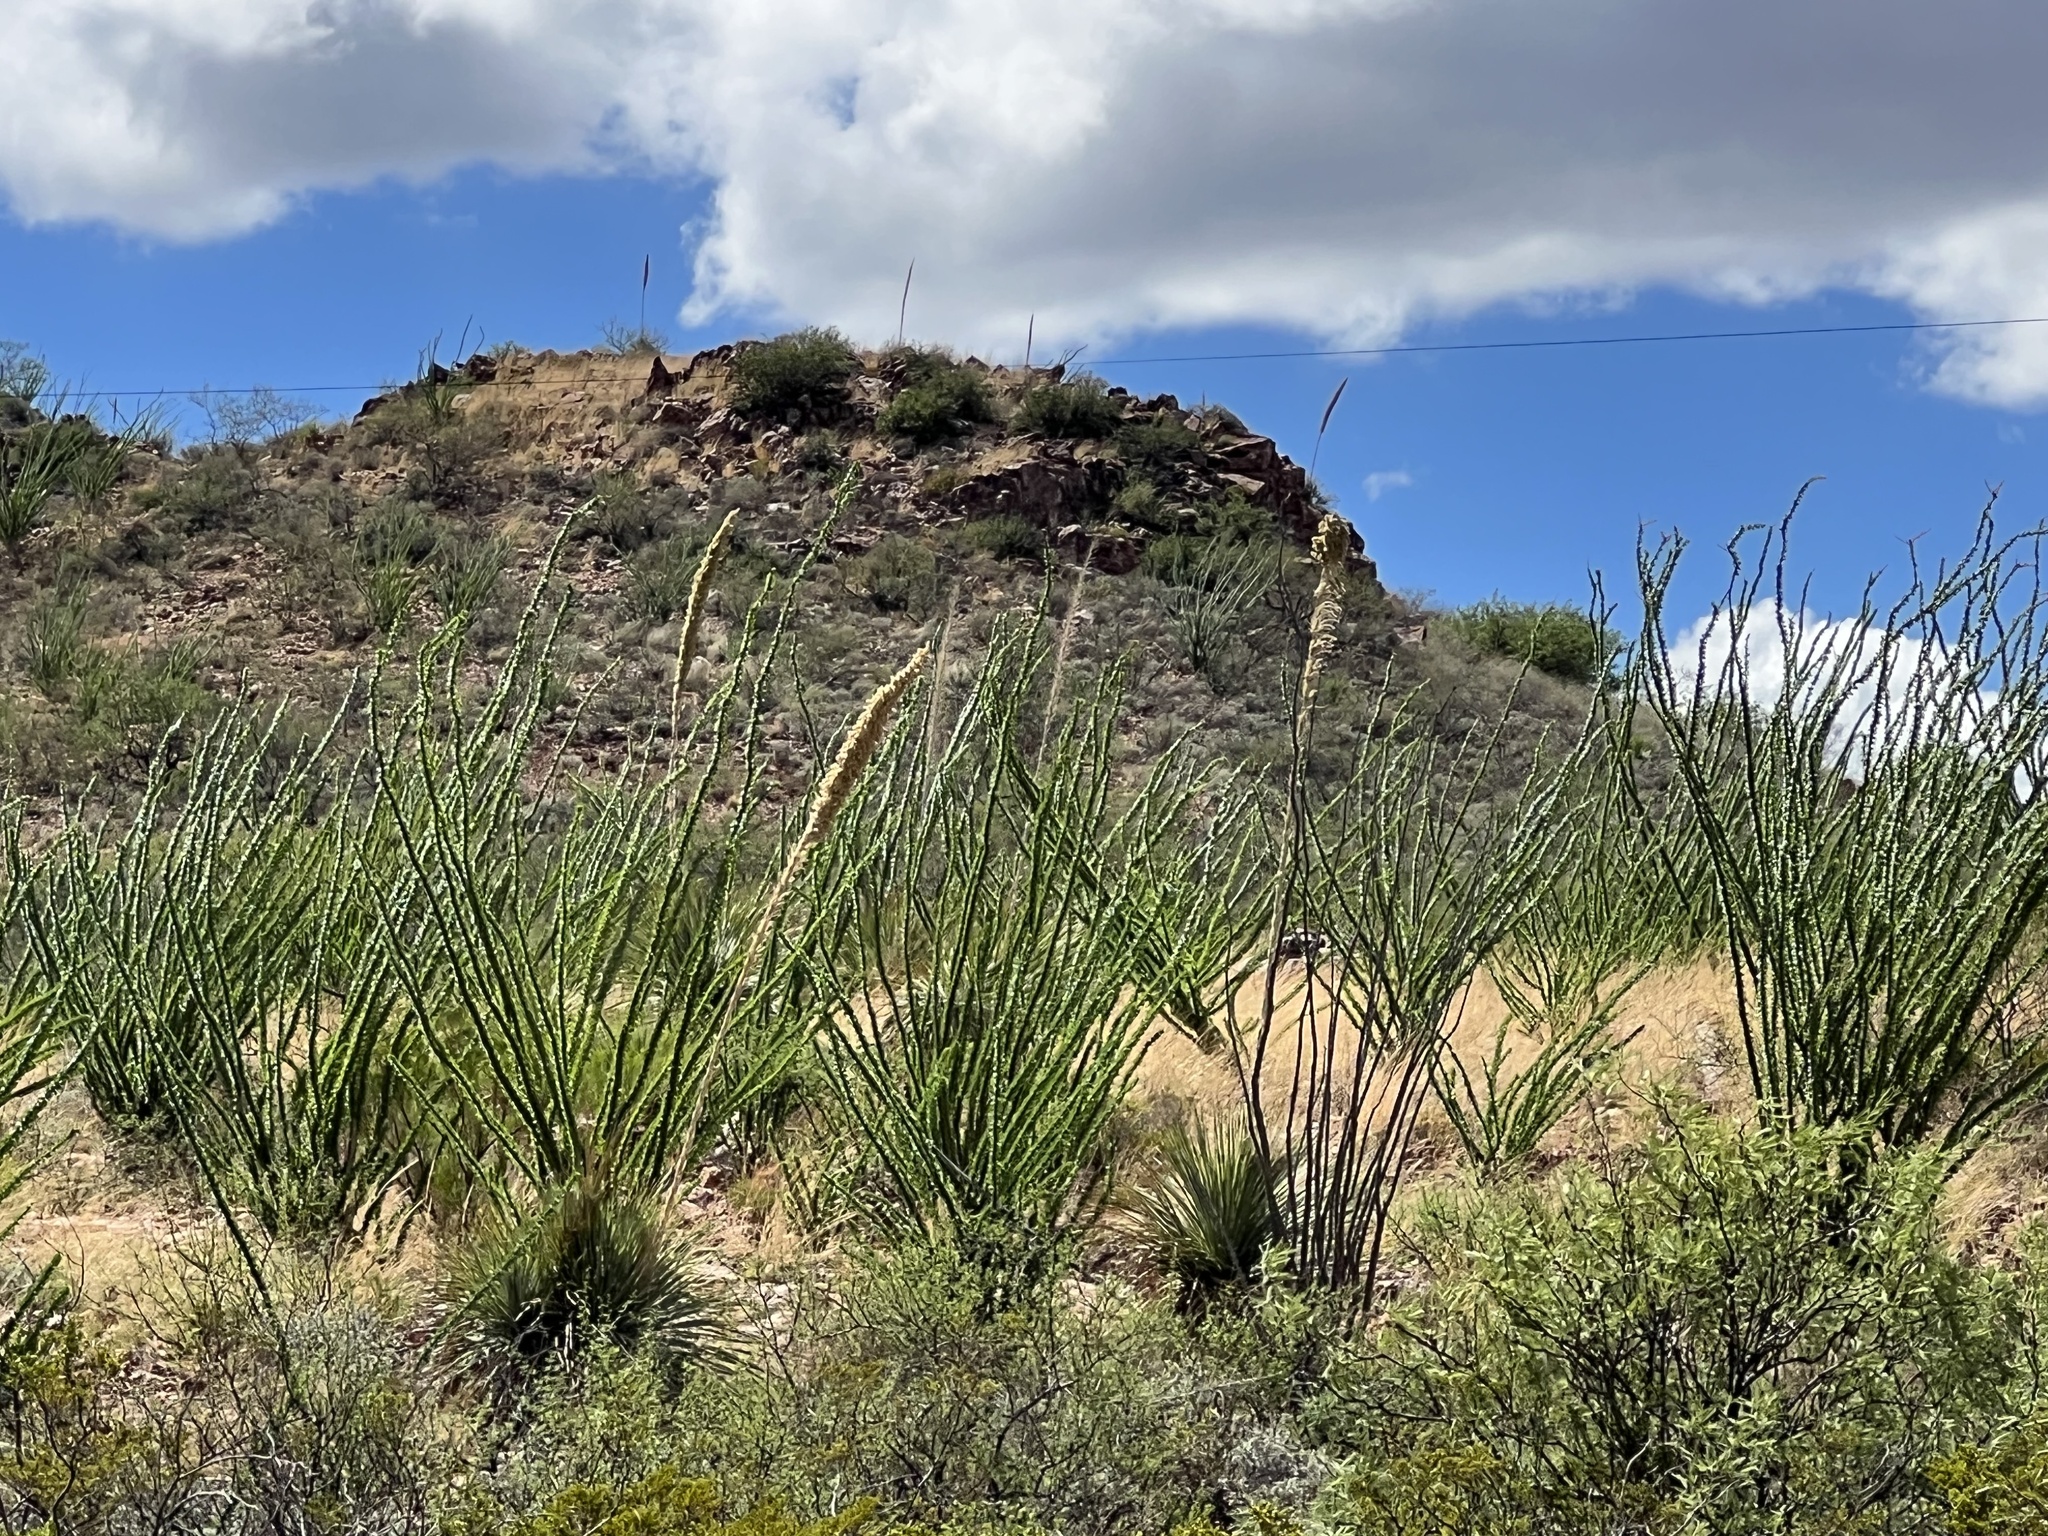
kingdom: Plantae
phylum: Tracheophyta
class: Magnoliopsida
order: Ericales
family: Fouquieriaceae
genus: Fouquieria
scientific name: Fouquieria splendens
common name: Vine-cactus
